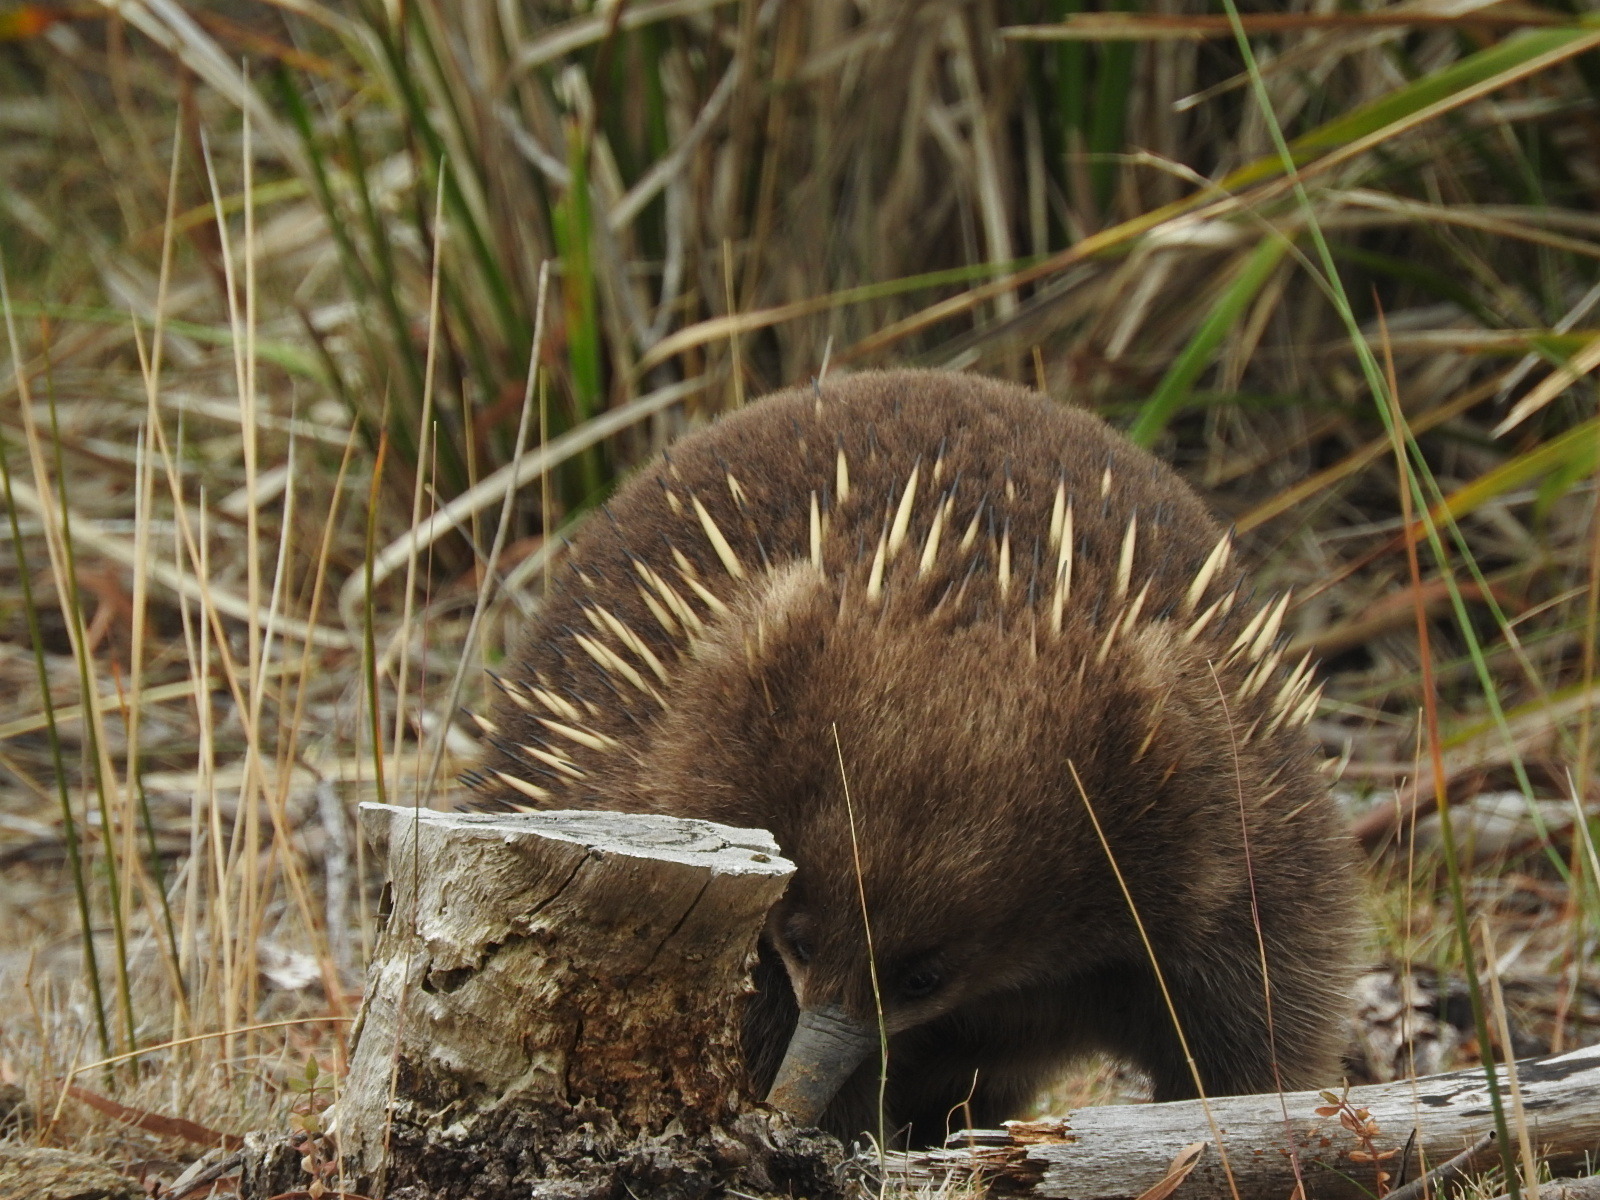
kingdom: Animalia
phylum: Chordata
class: Mammalia
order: Monotremata
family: Tachyglossidae
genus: Tachyglossus
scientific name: Tachyglossus aculeatus
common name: Short-beaked echidna
